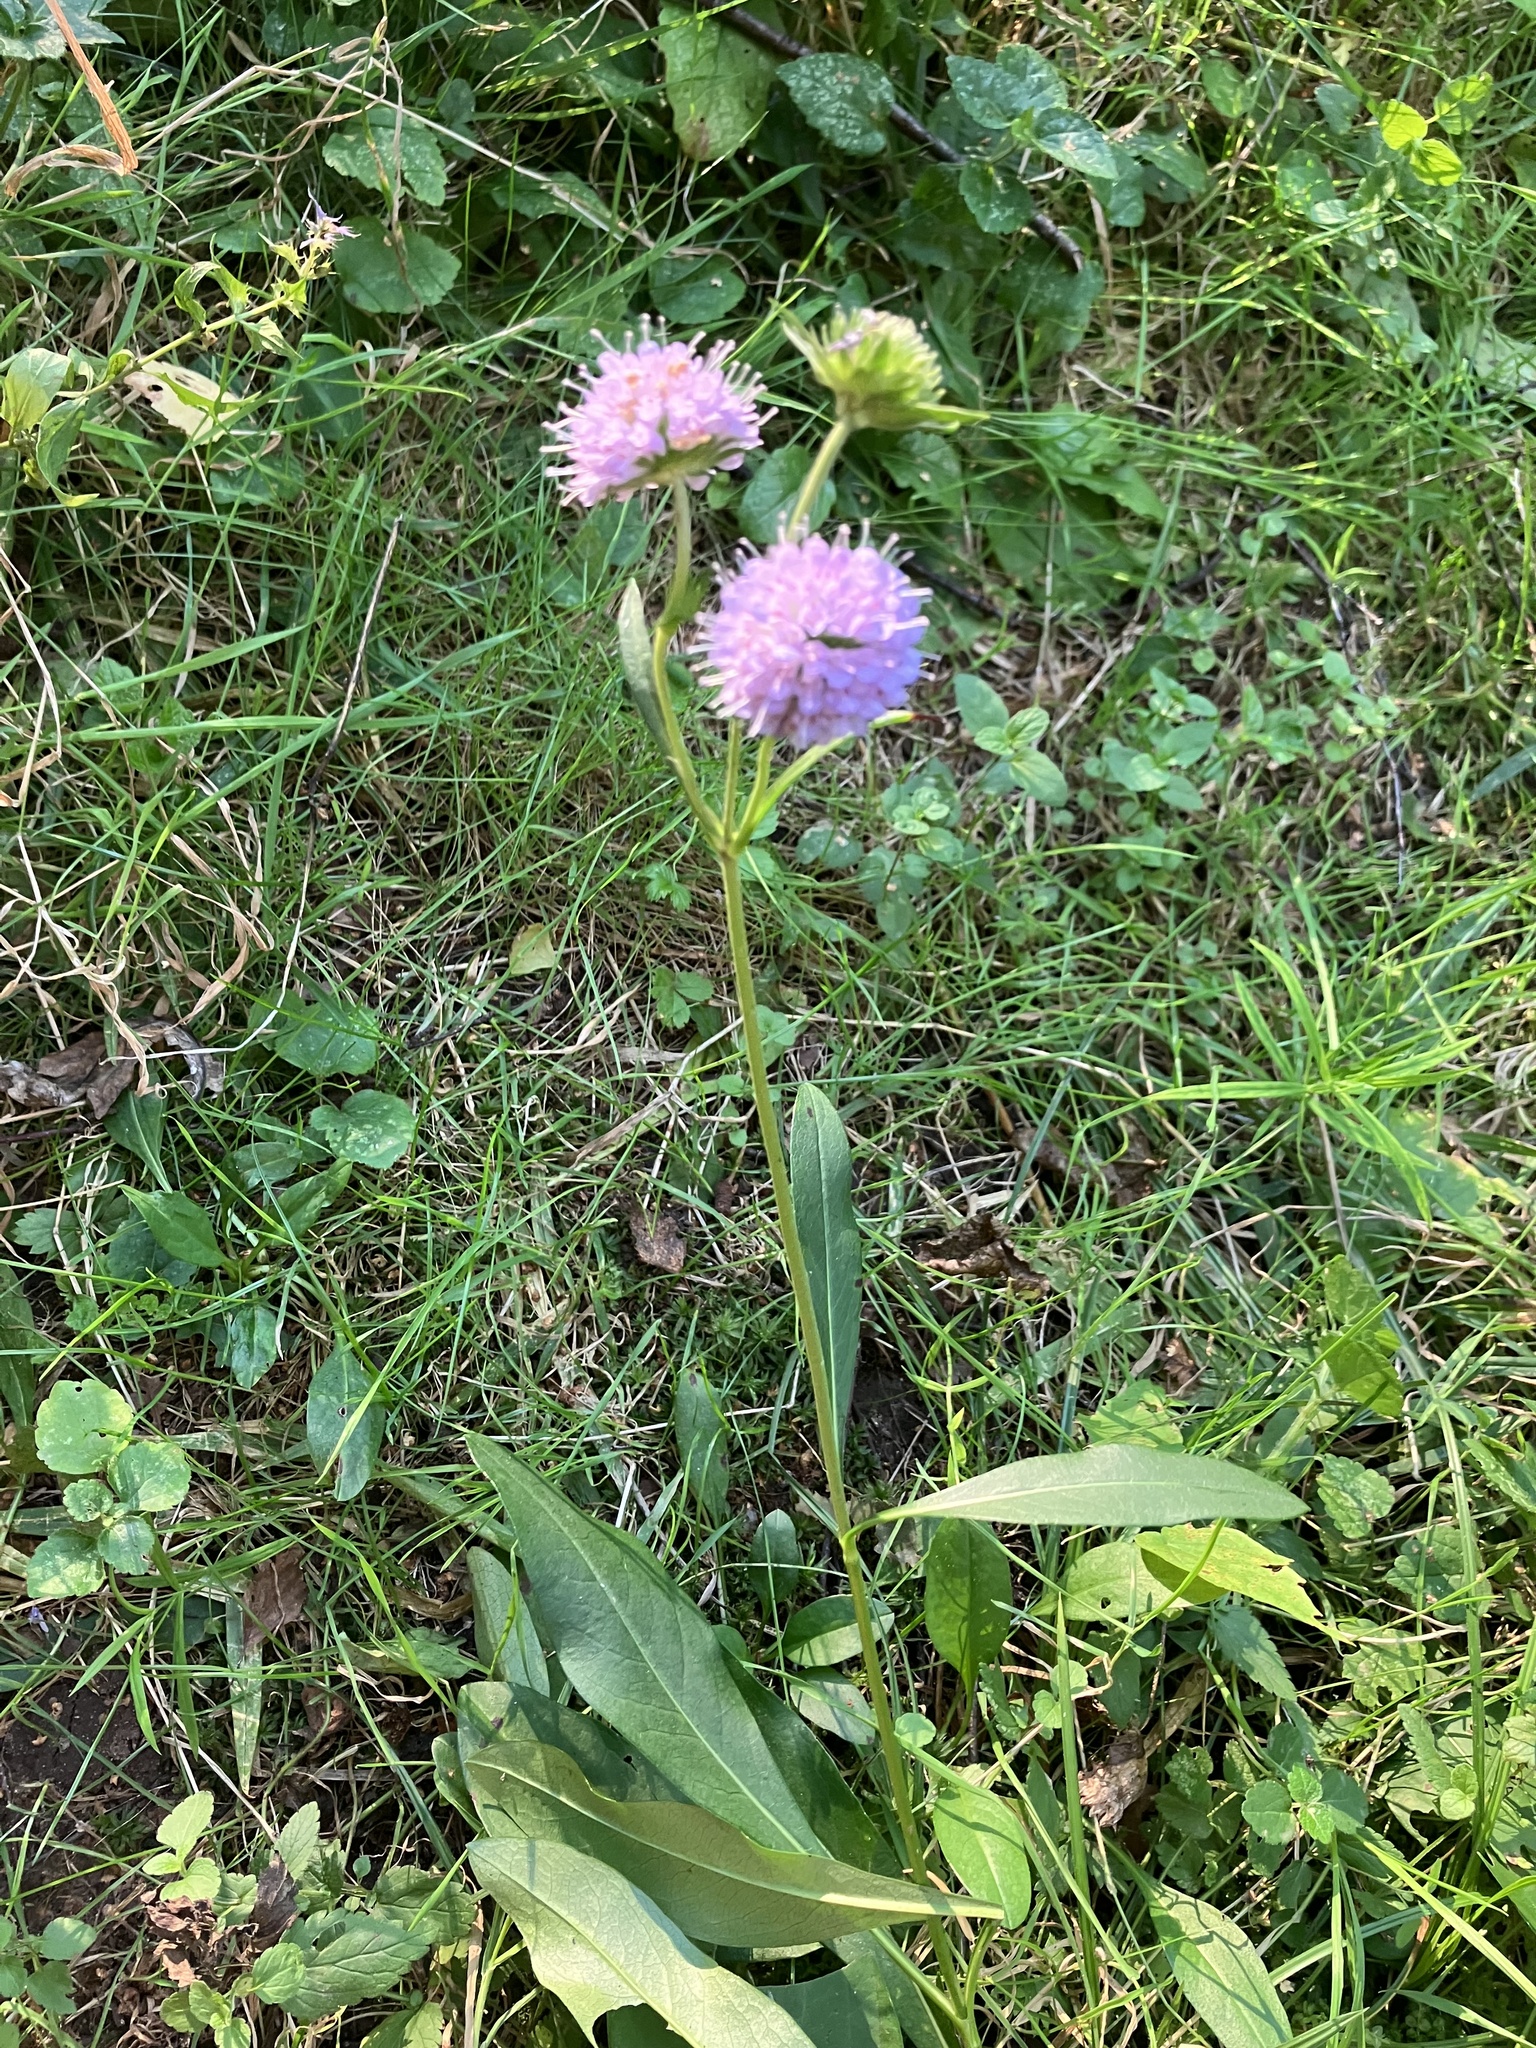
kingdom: Plantae
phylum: Tracheophyta
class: Magnoliopsida
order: Dipsacales
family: Caprifoliaceae
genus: Succisa
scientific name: Succisa pratensis
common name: Devil's-bit
